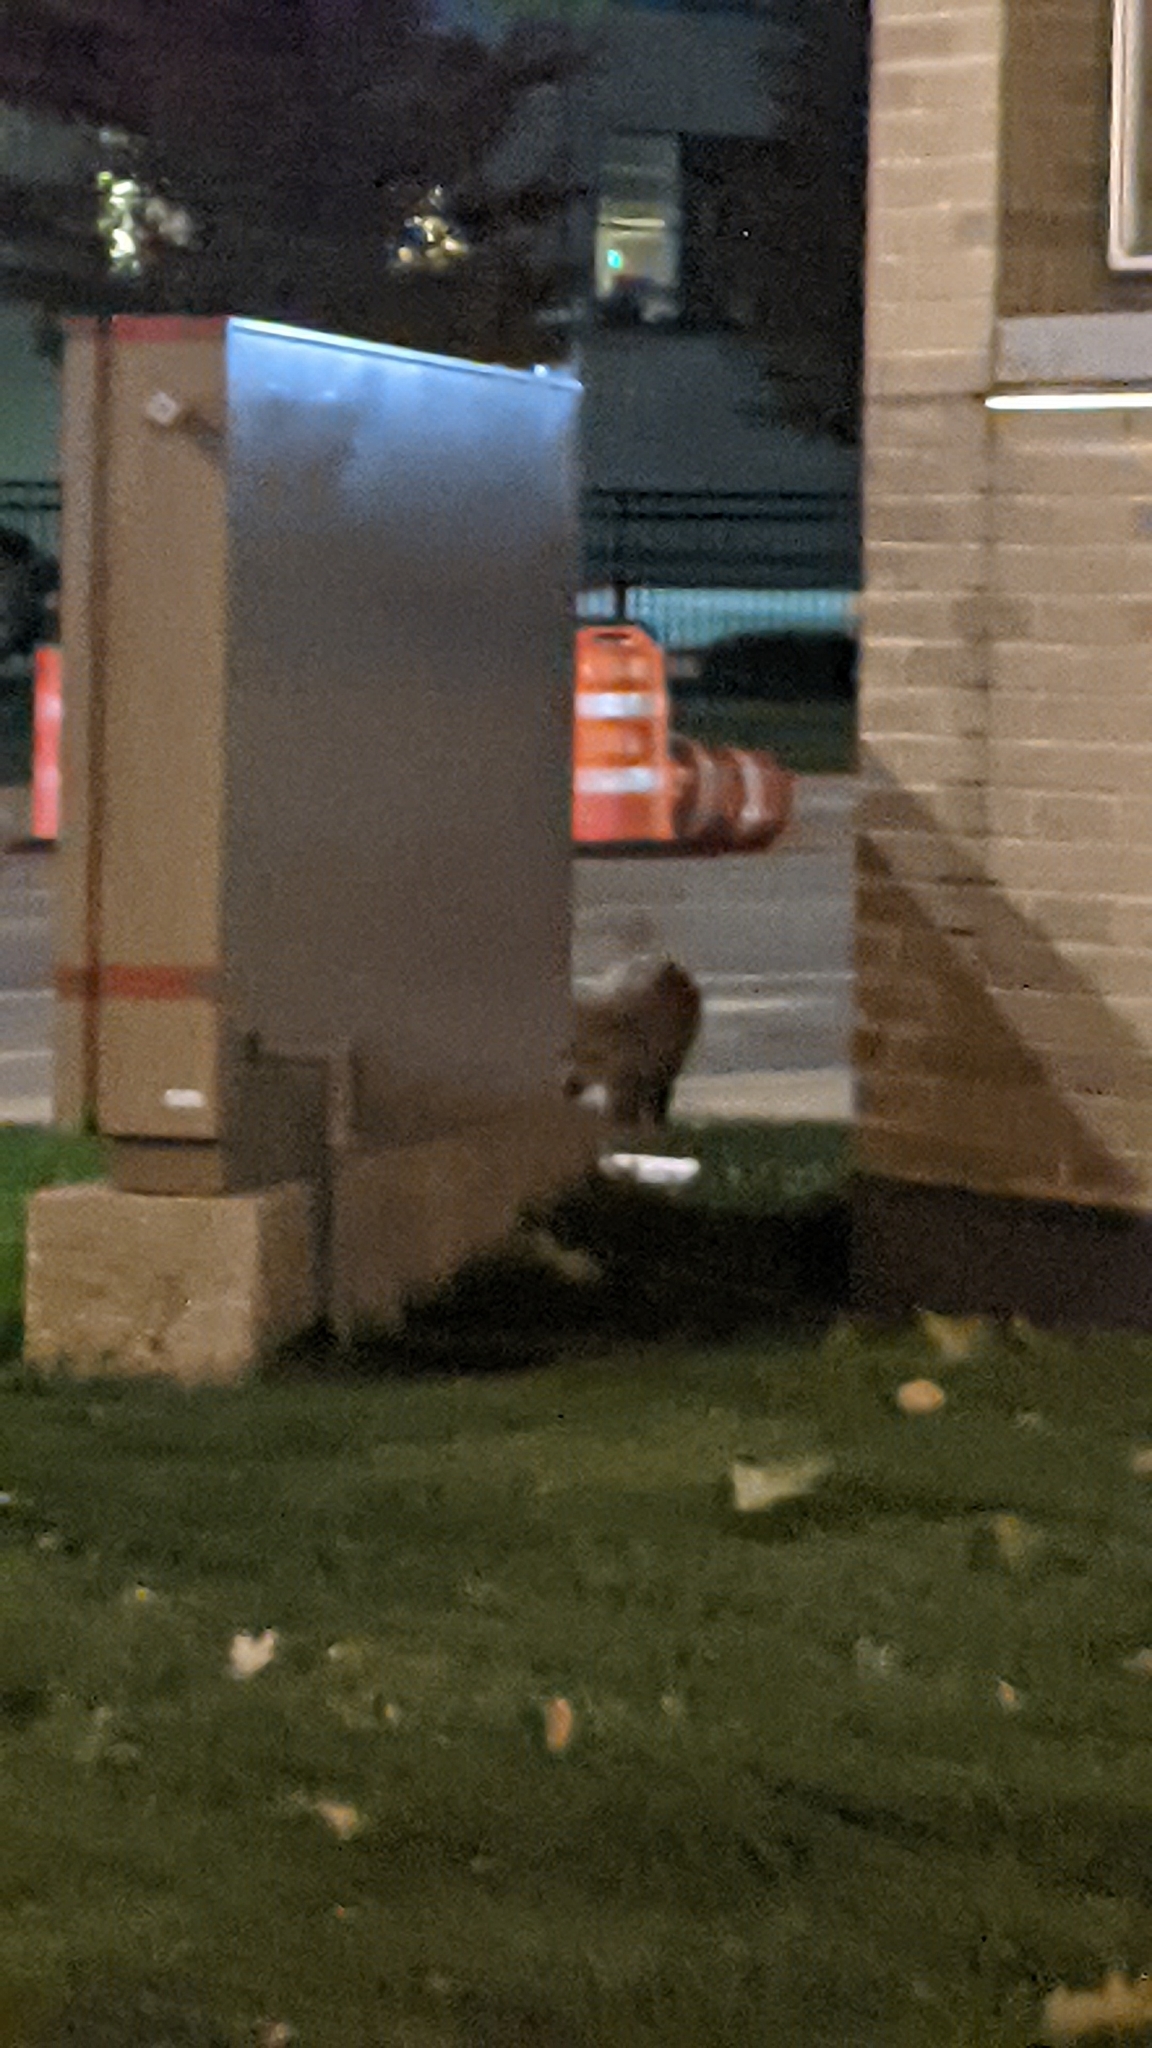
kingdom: Animalia
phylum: Chordata
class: Mammalia
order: Carnivora
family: Canidae
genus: Vulpes
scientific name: Vulpes vulpes
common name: Red fox
